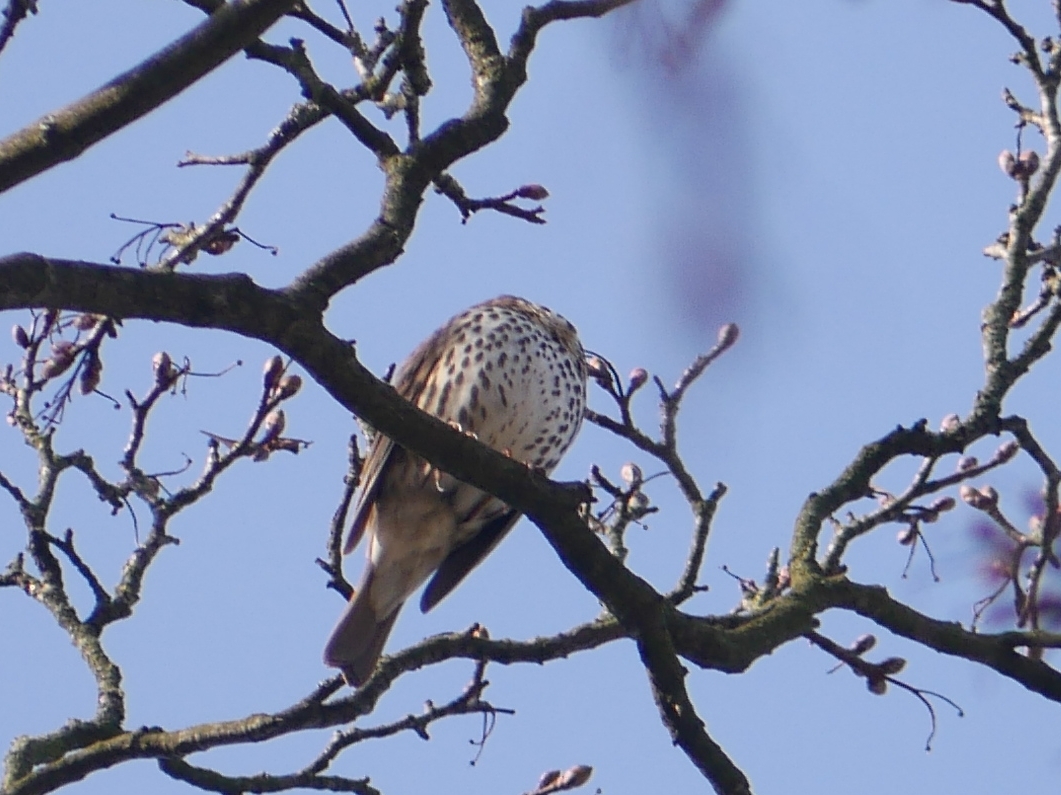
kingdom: Animalia
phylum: Chordata
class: Aves
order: Passeriformes
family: Turdidae
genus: Turdus
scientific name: Turdus philomelos
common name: Song thrush
